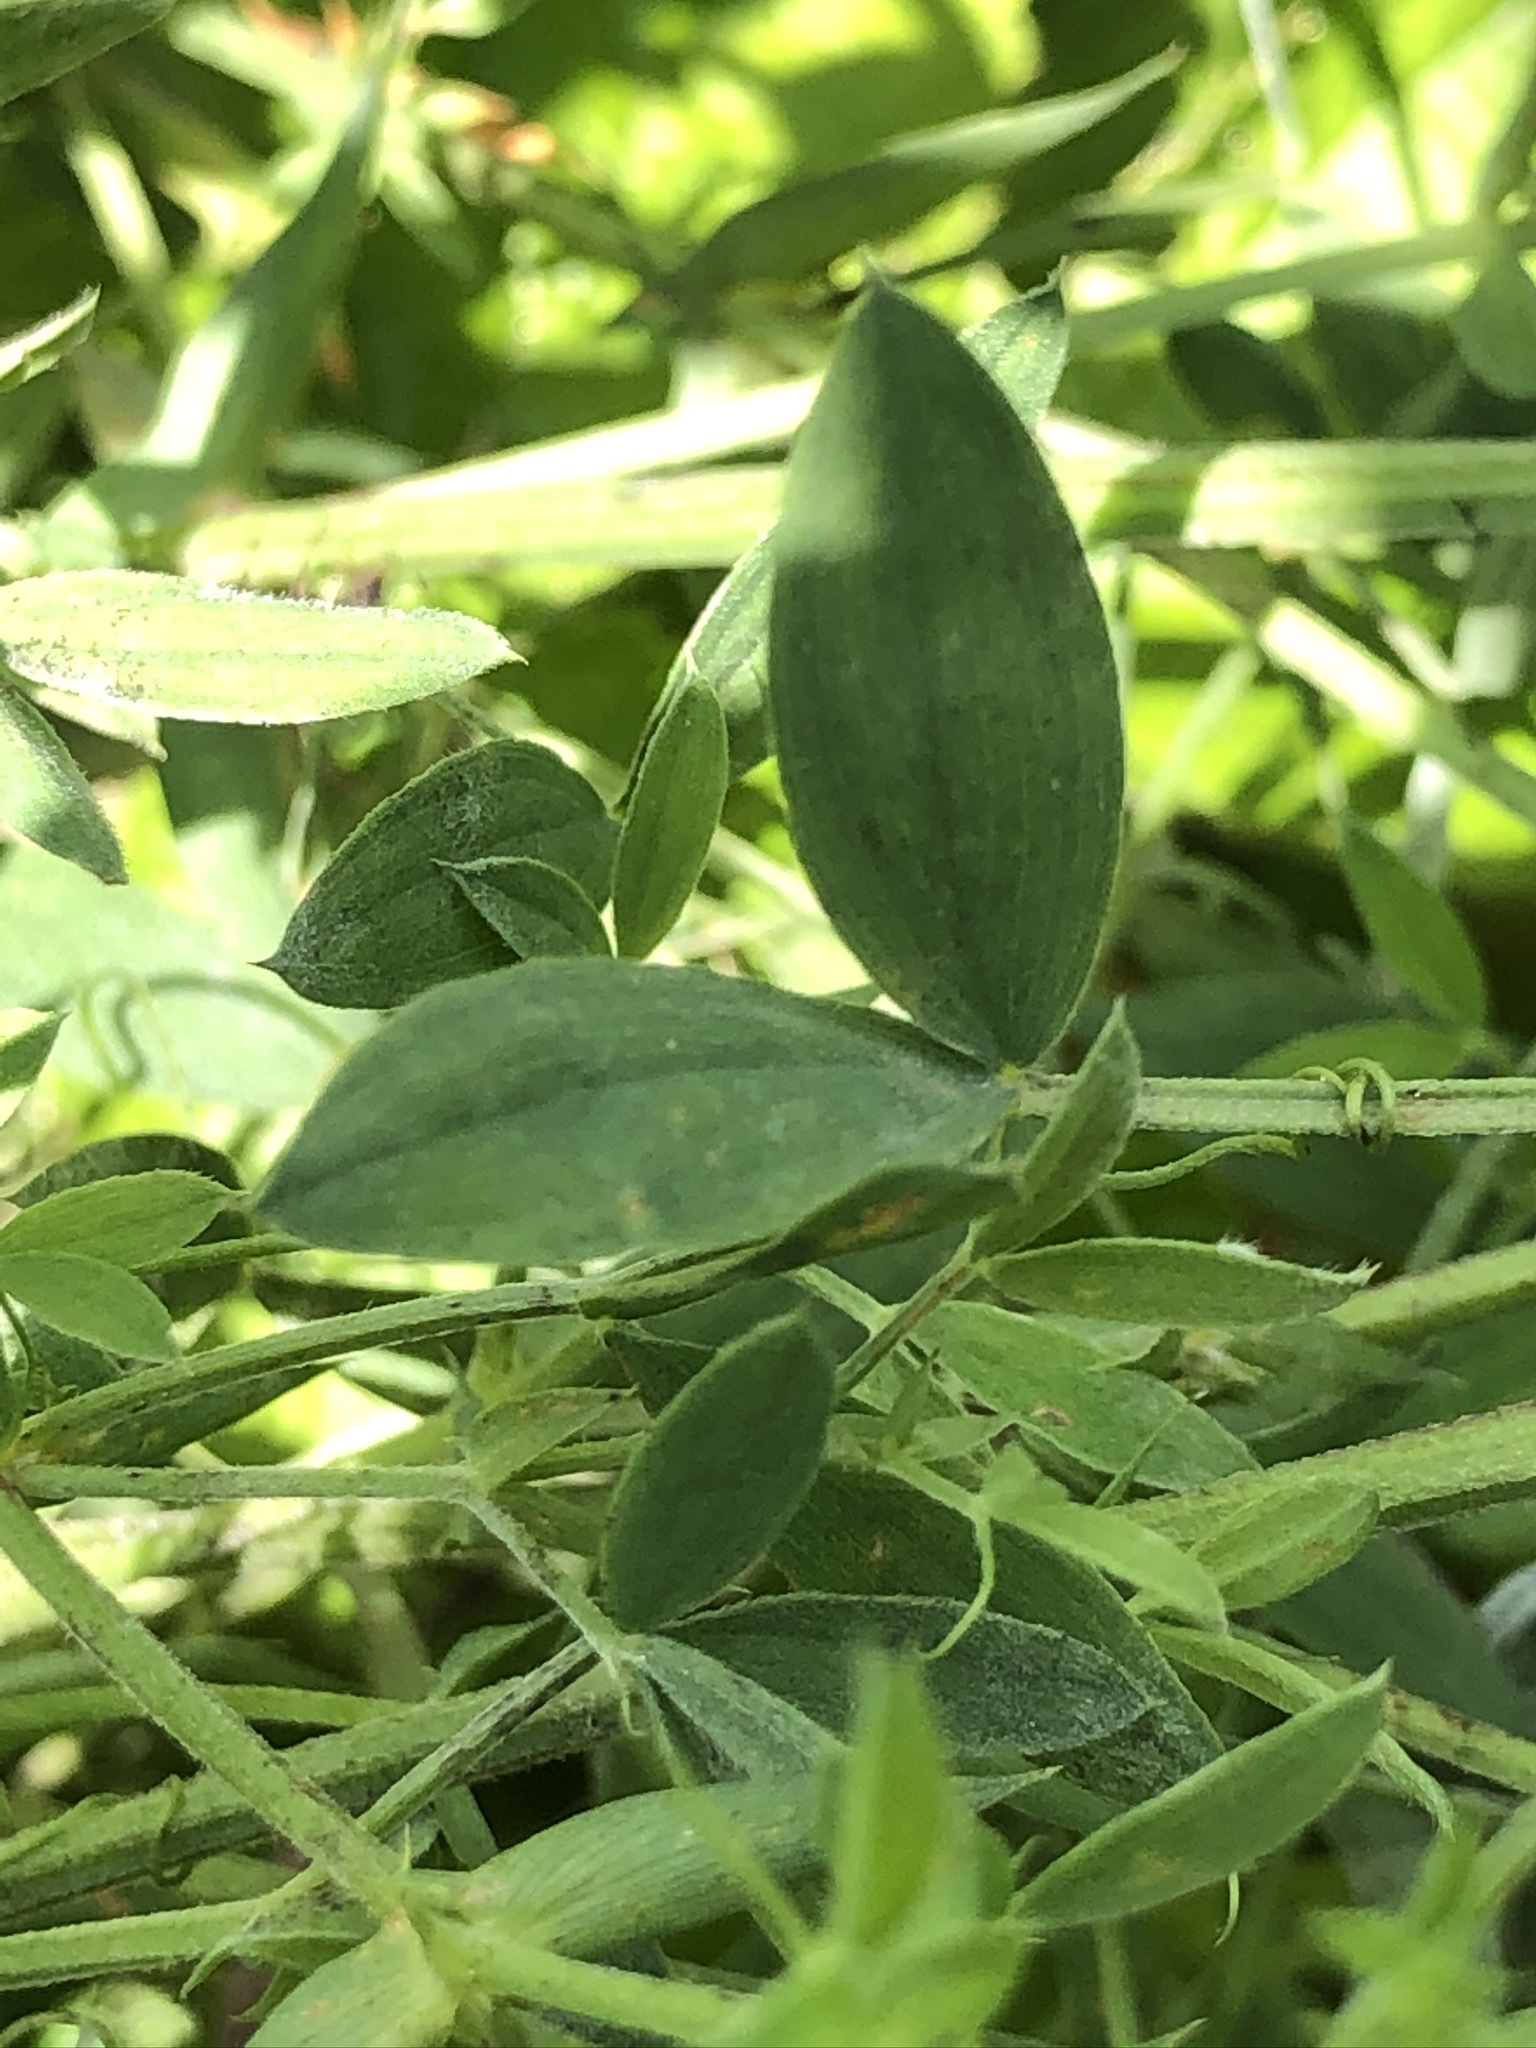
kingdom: Plantae
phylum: Tracheophyta
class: Magnoliopsida
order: Fabales
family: Fabaceae
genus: Lathyrus
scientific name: Lathyrus pratensis
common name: Meadow vetchling
